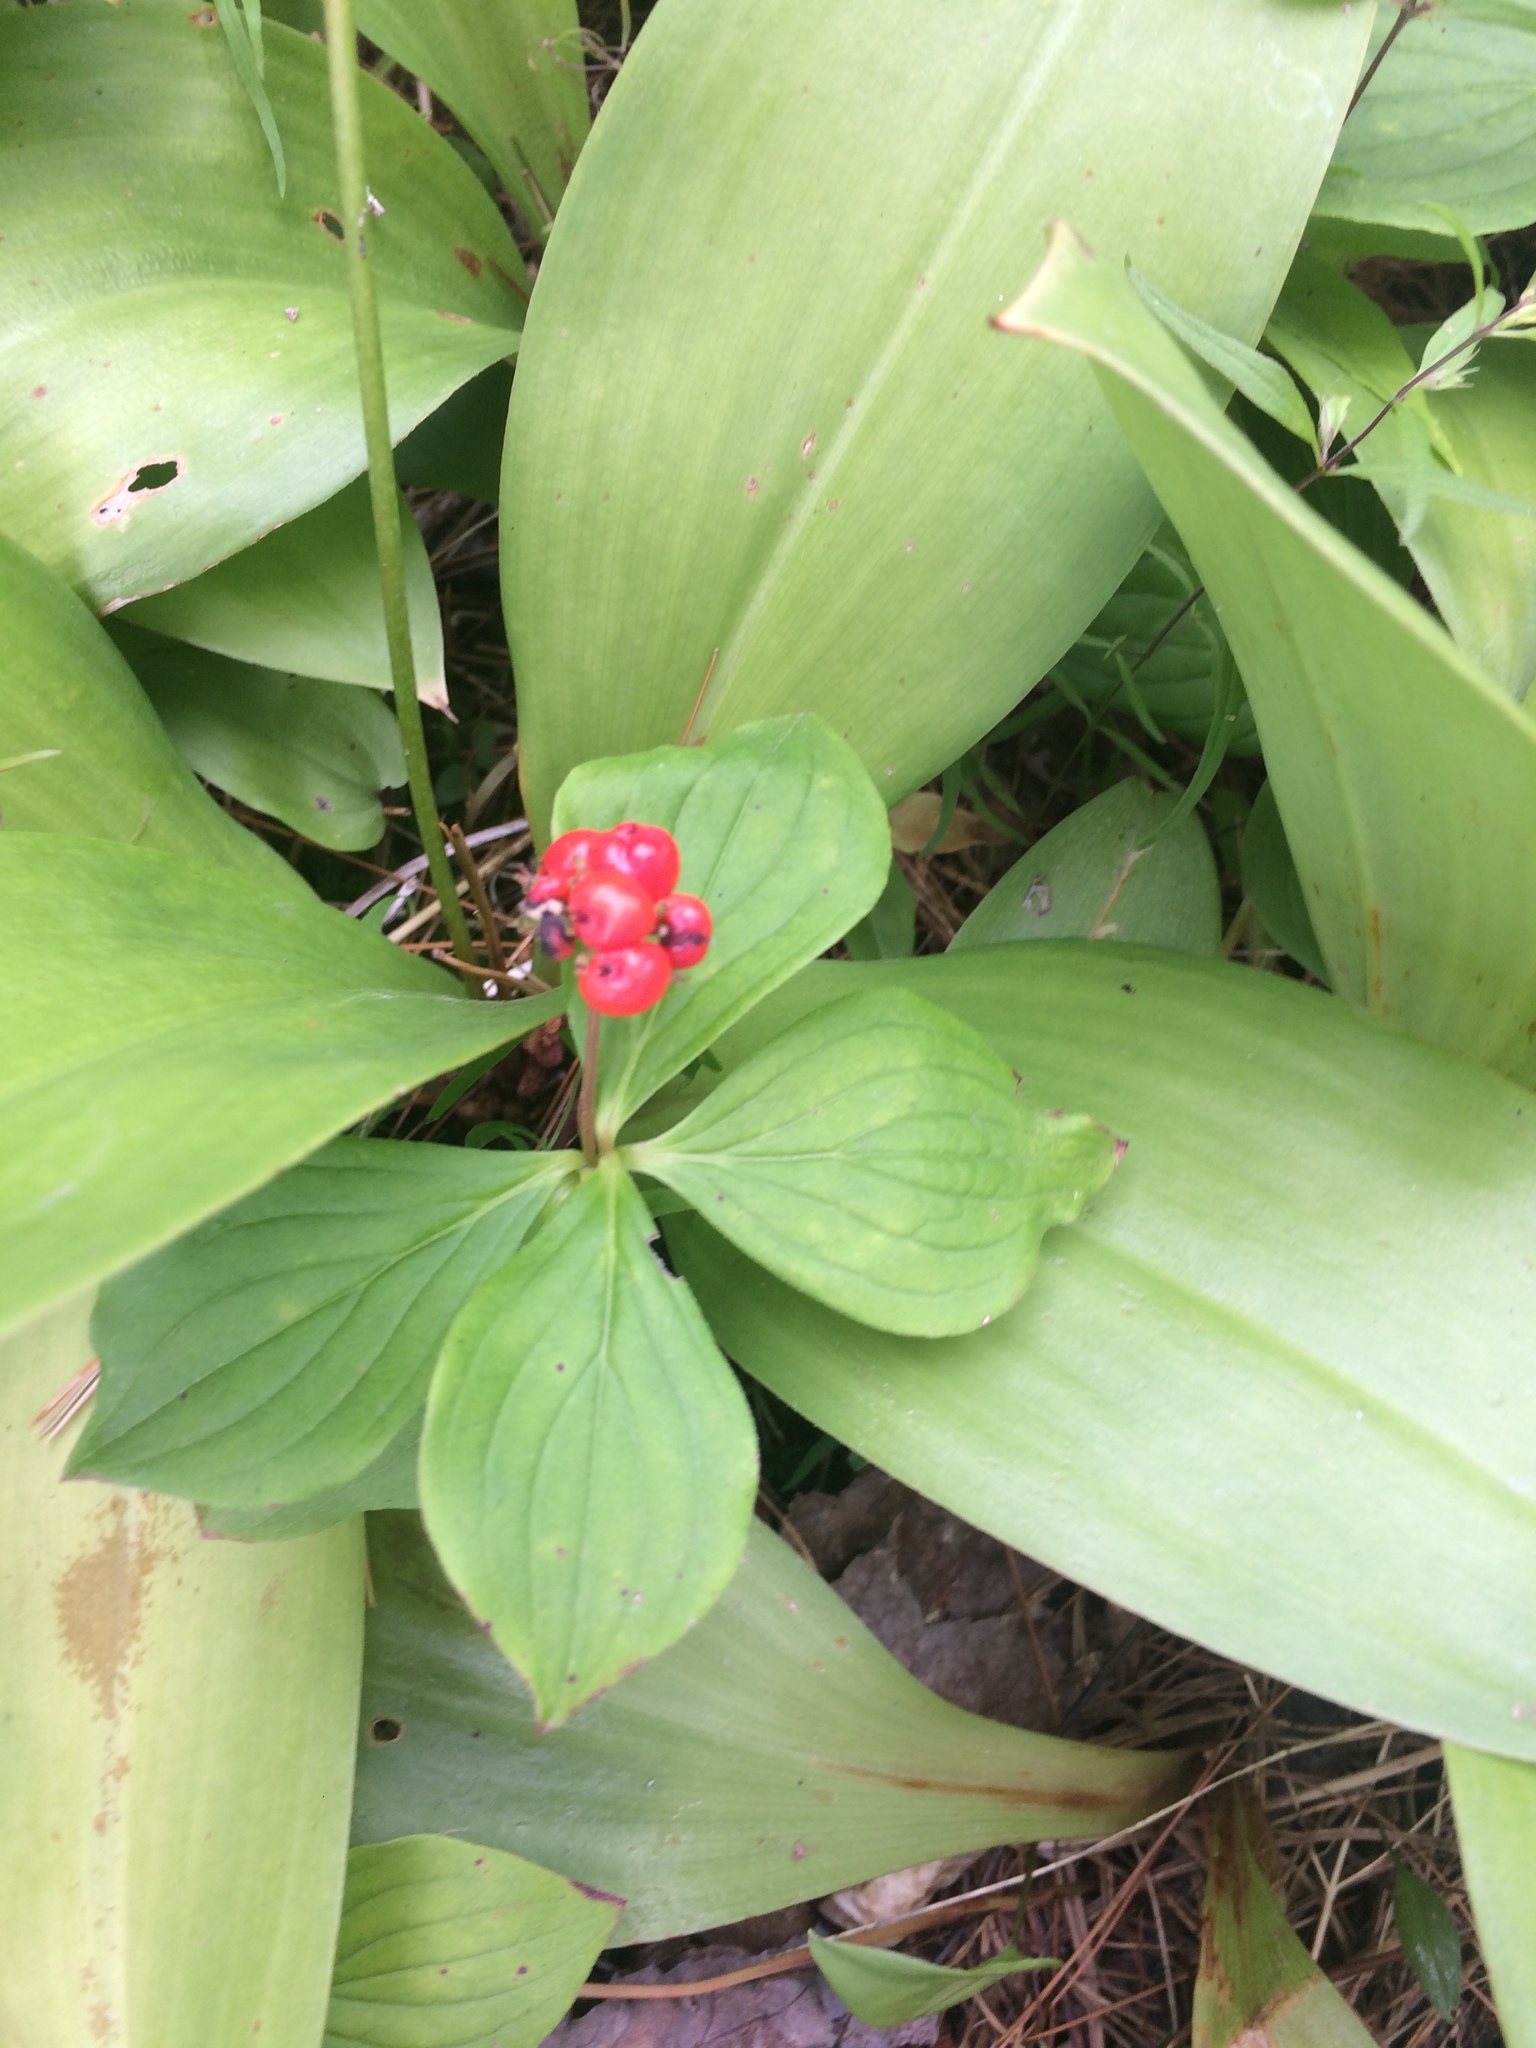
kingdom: Plantae
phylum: Tracheophyta
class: Magnoliopsida
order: Cornales
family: Cornaceae
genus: Cornus
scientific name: Cornus canadensis
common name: Creeping dogwood
